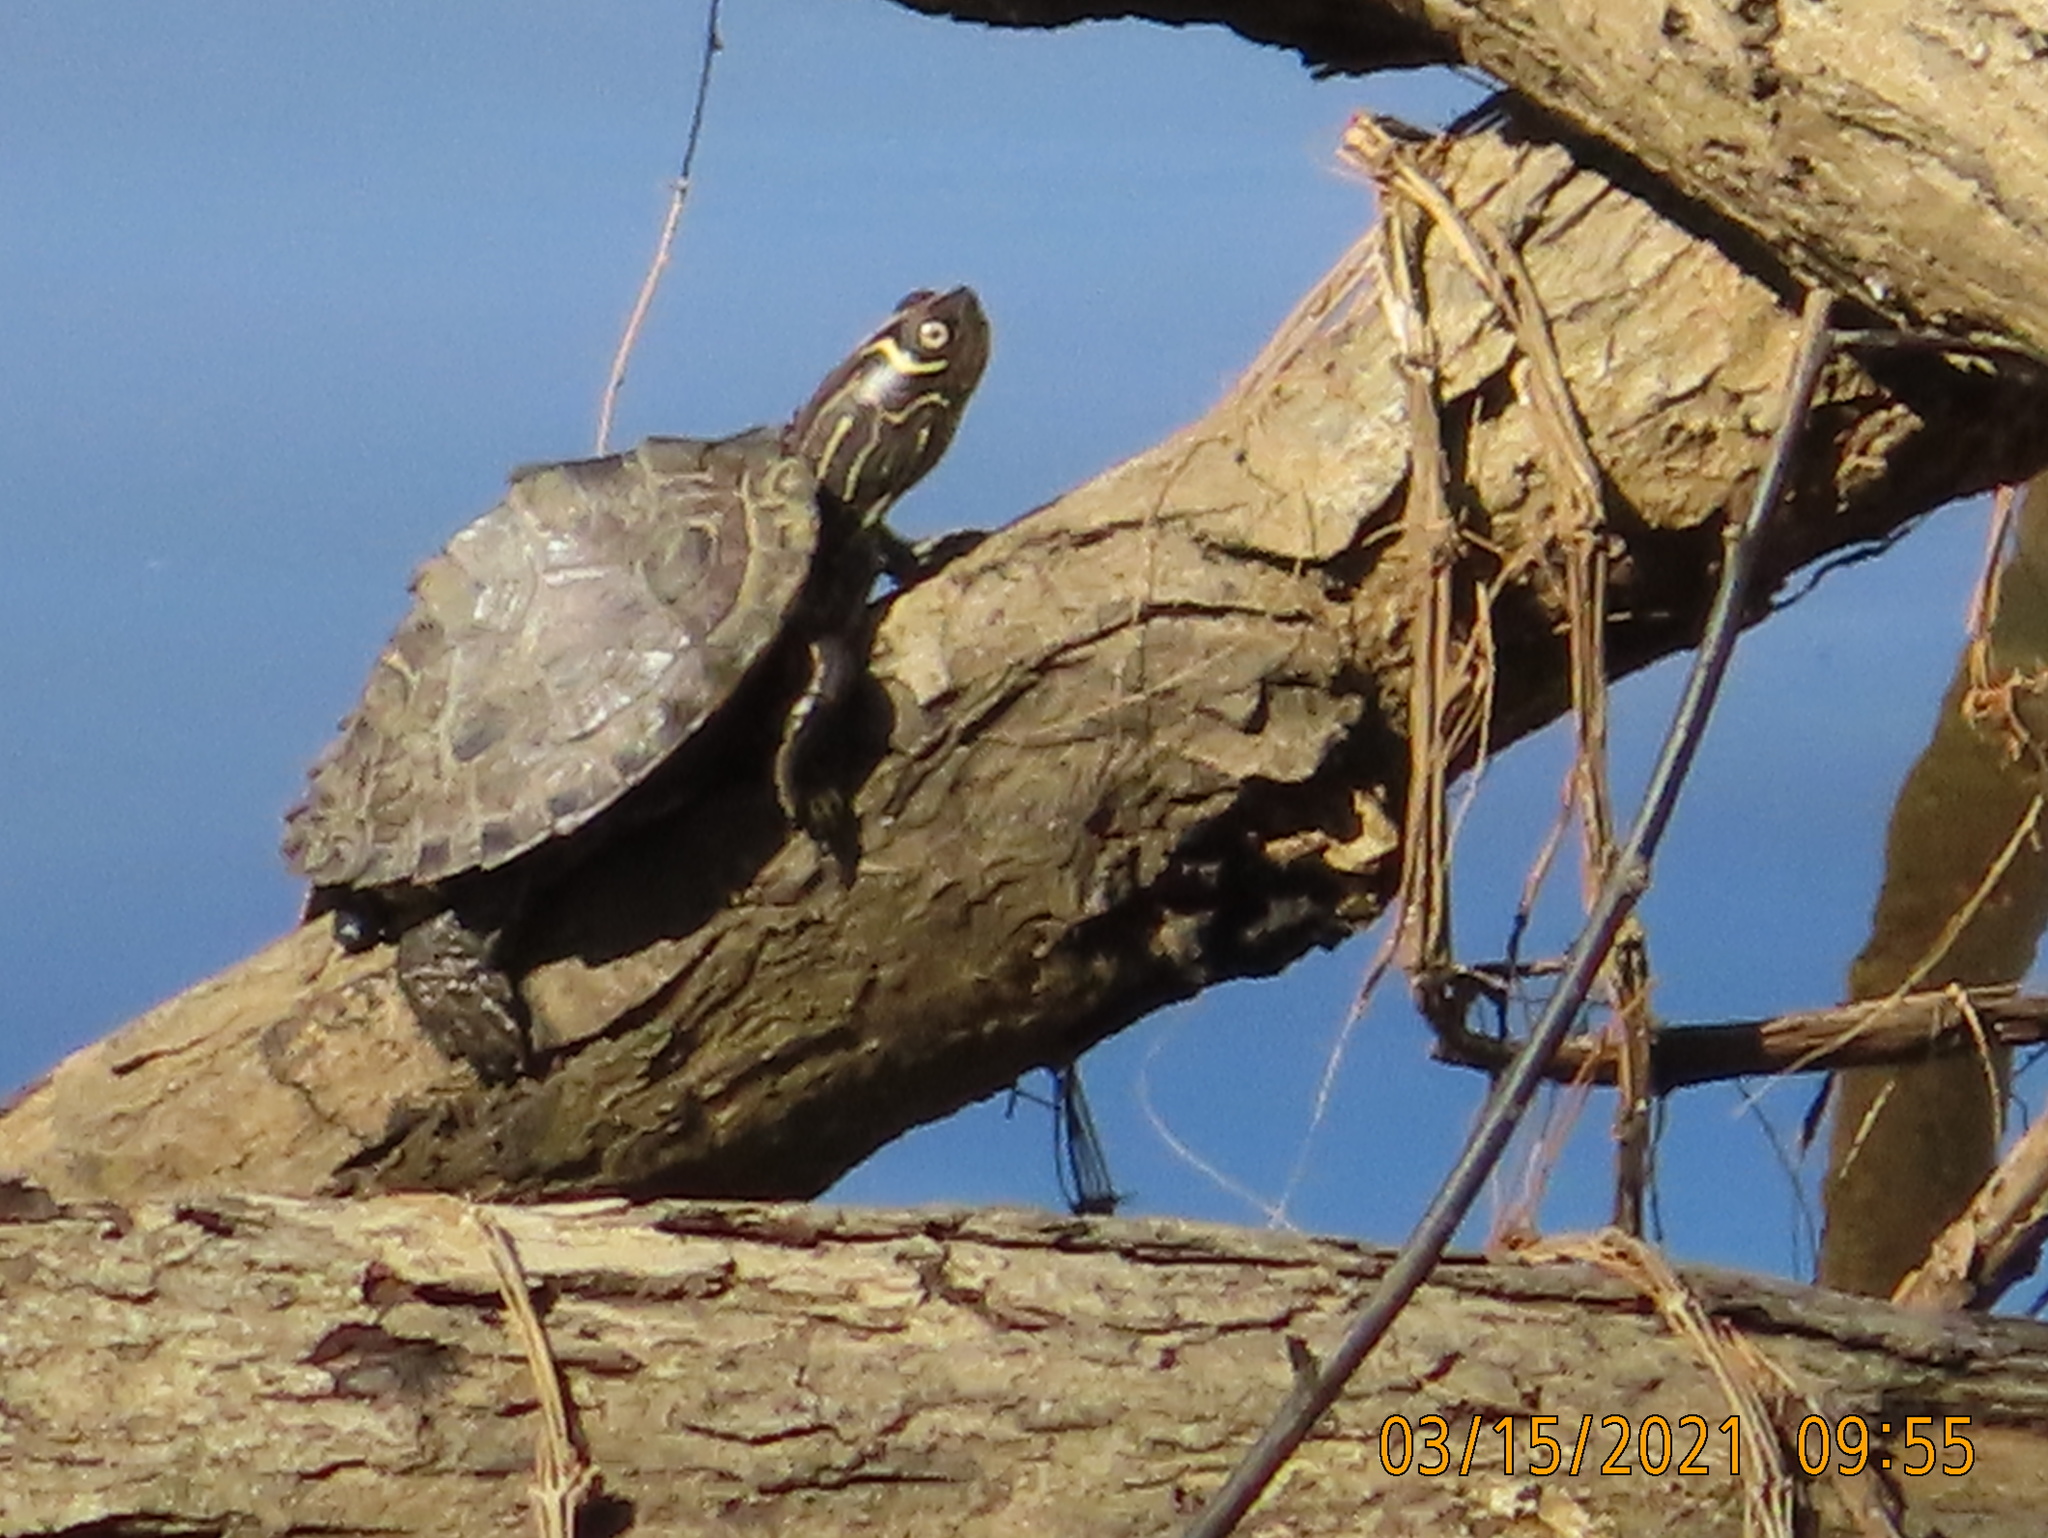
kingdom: Animalia
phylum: Chordata
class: Testudines
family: Emydidae
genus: Graptemys
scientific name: Graptemys pseudogeographica
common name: False map turtle
